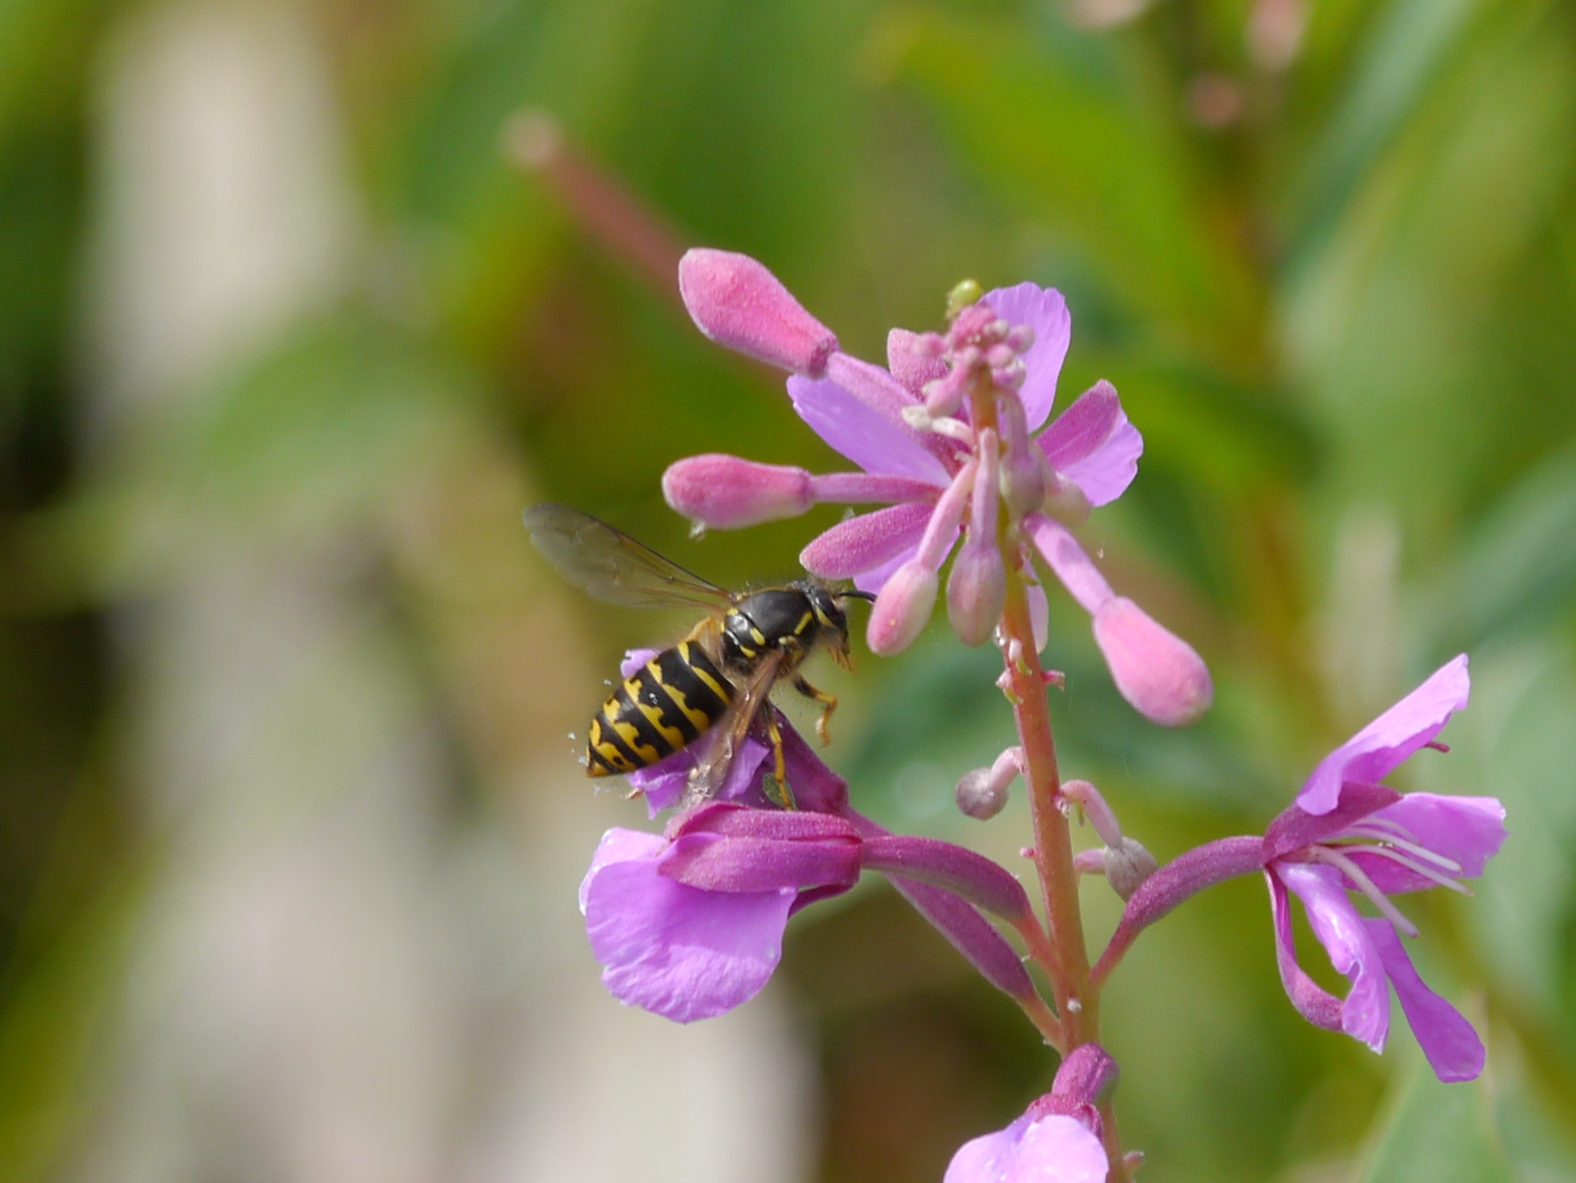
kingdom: Animalia
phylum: Arthropoda
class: Insecta
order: Hymenoptera
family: Vespidae
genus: Dolichovespula
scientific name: Dolichovespula arenaria
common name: Aerial yellowjacket
